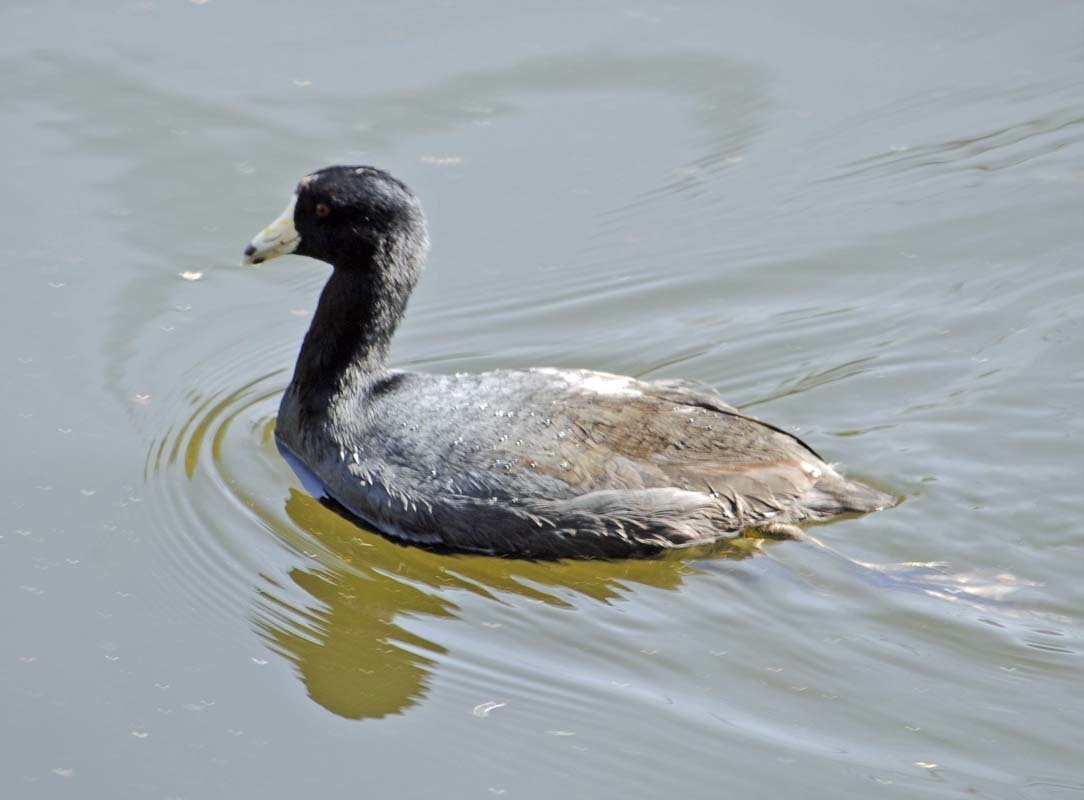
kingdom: Animalia
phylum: Chordata
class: Aves
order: Gruiformes
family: Rallidae
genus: Fulica
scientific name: Fulica americana
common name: American coot
